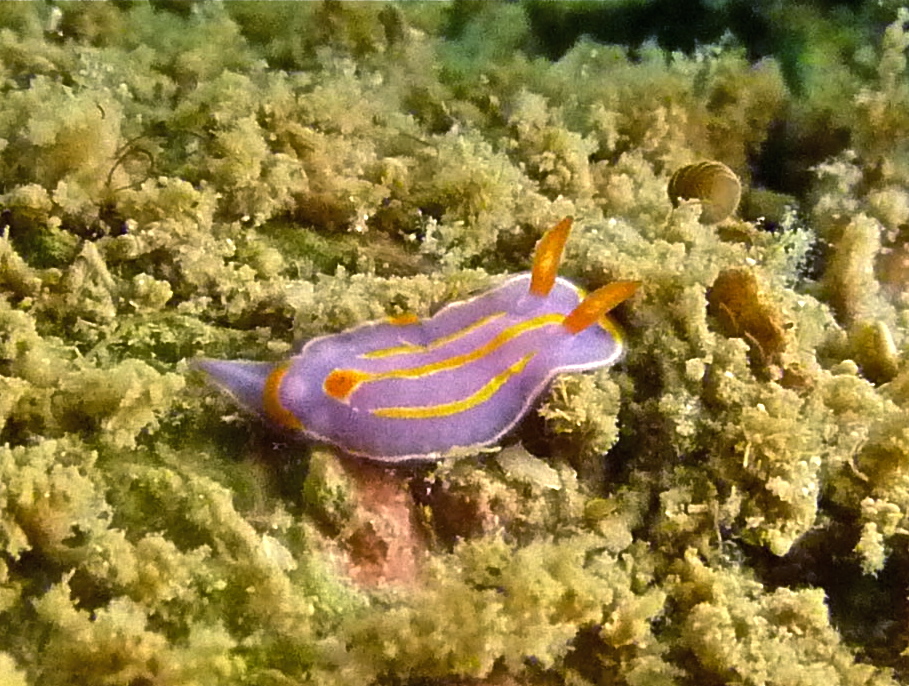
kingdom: Animalia
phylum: Mollusca
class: Gastropoda
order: Nudibranchia
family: Chromodorididae
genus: Mexichromis
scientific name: Mexichromis trilineata
